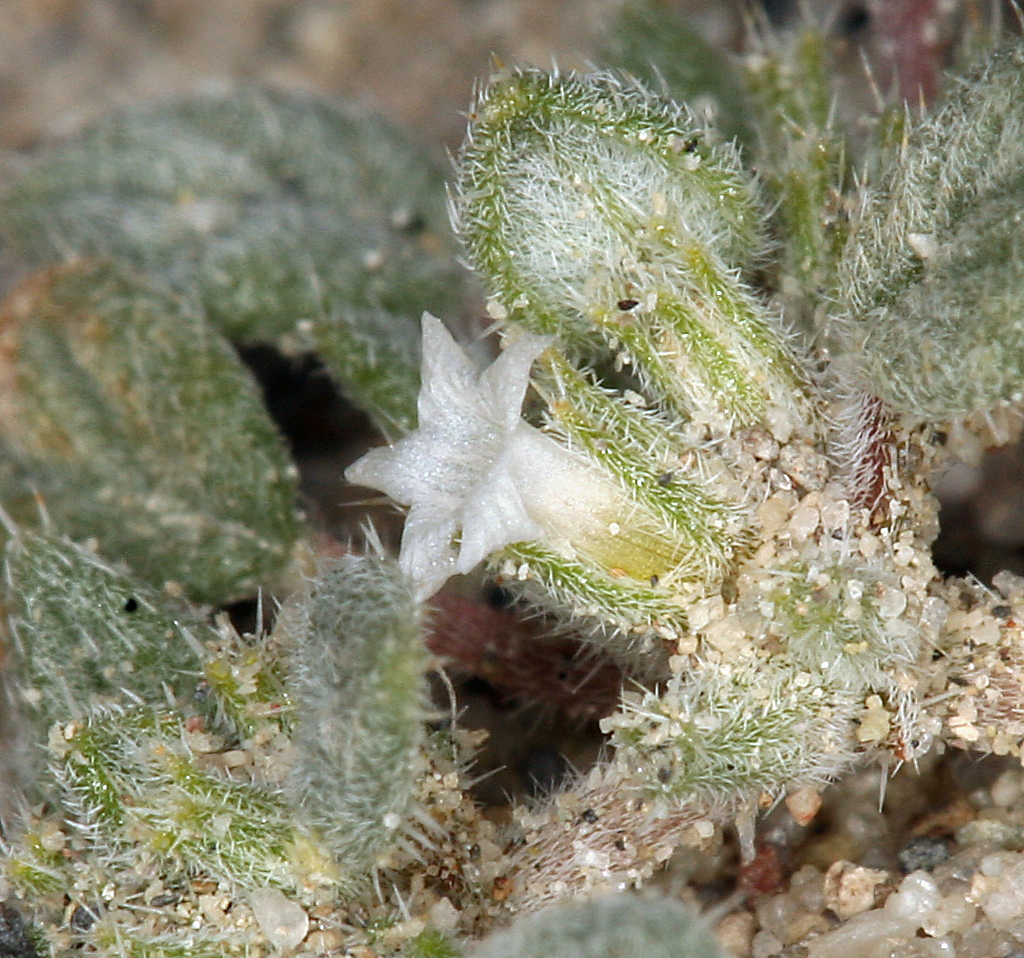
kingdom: Plantae
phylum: Tracheophyta
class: Magnoliopsida
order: Boraginales
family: Ehretiaceae
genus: Tiquilia
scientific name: Tiquilia nuttallii
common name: Rosette tiquilia
